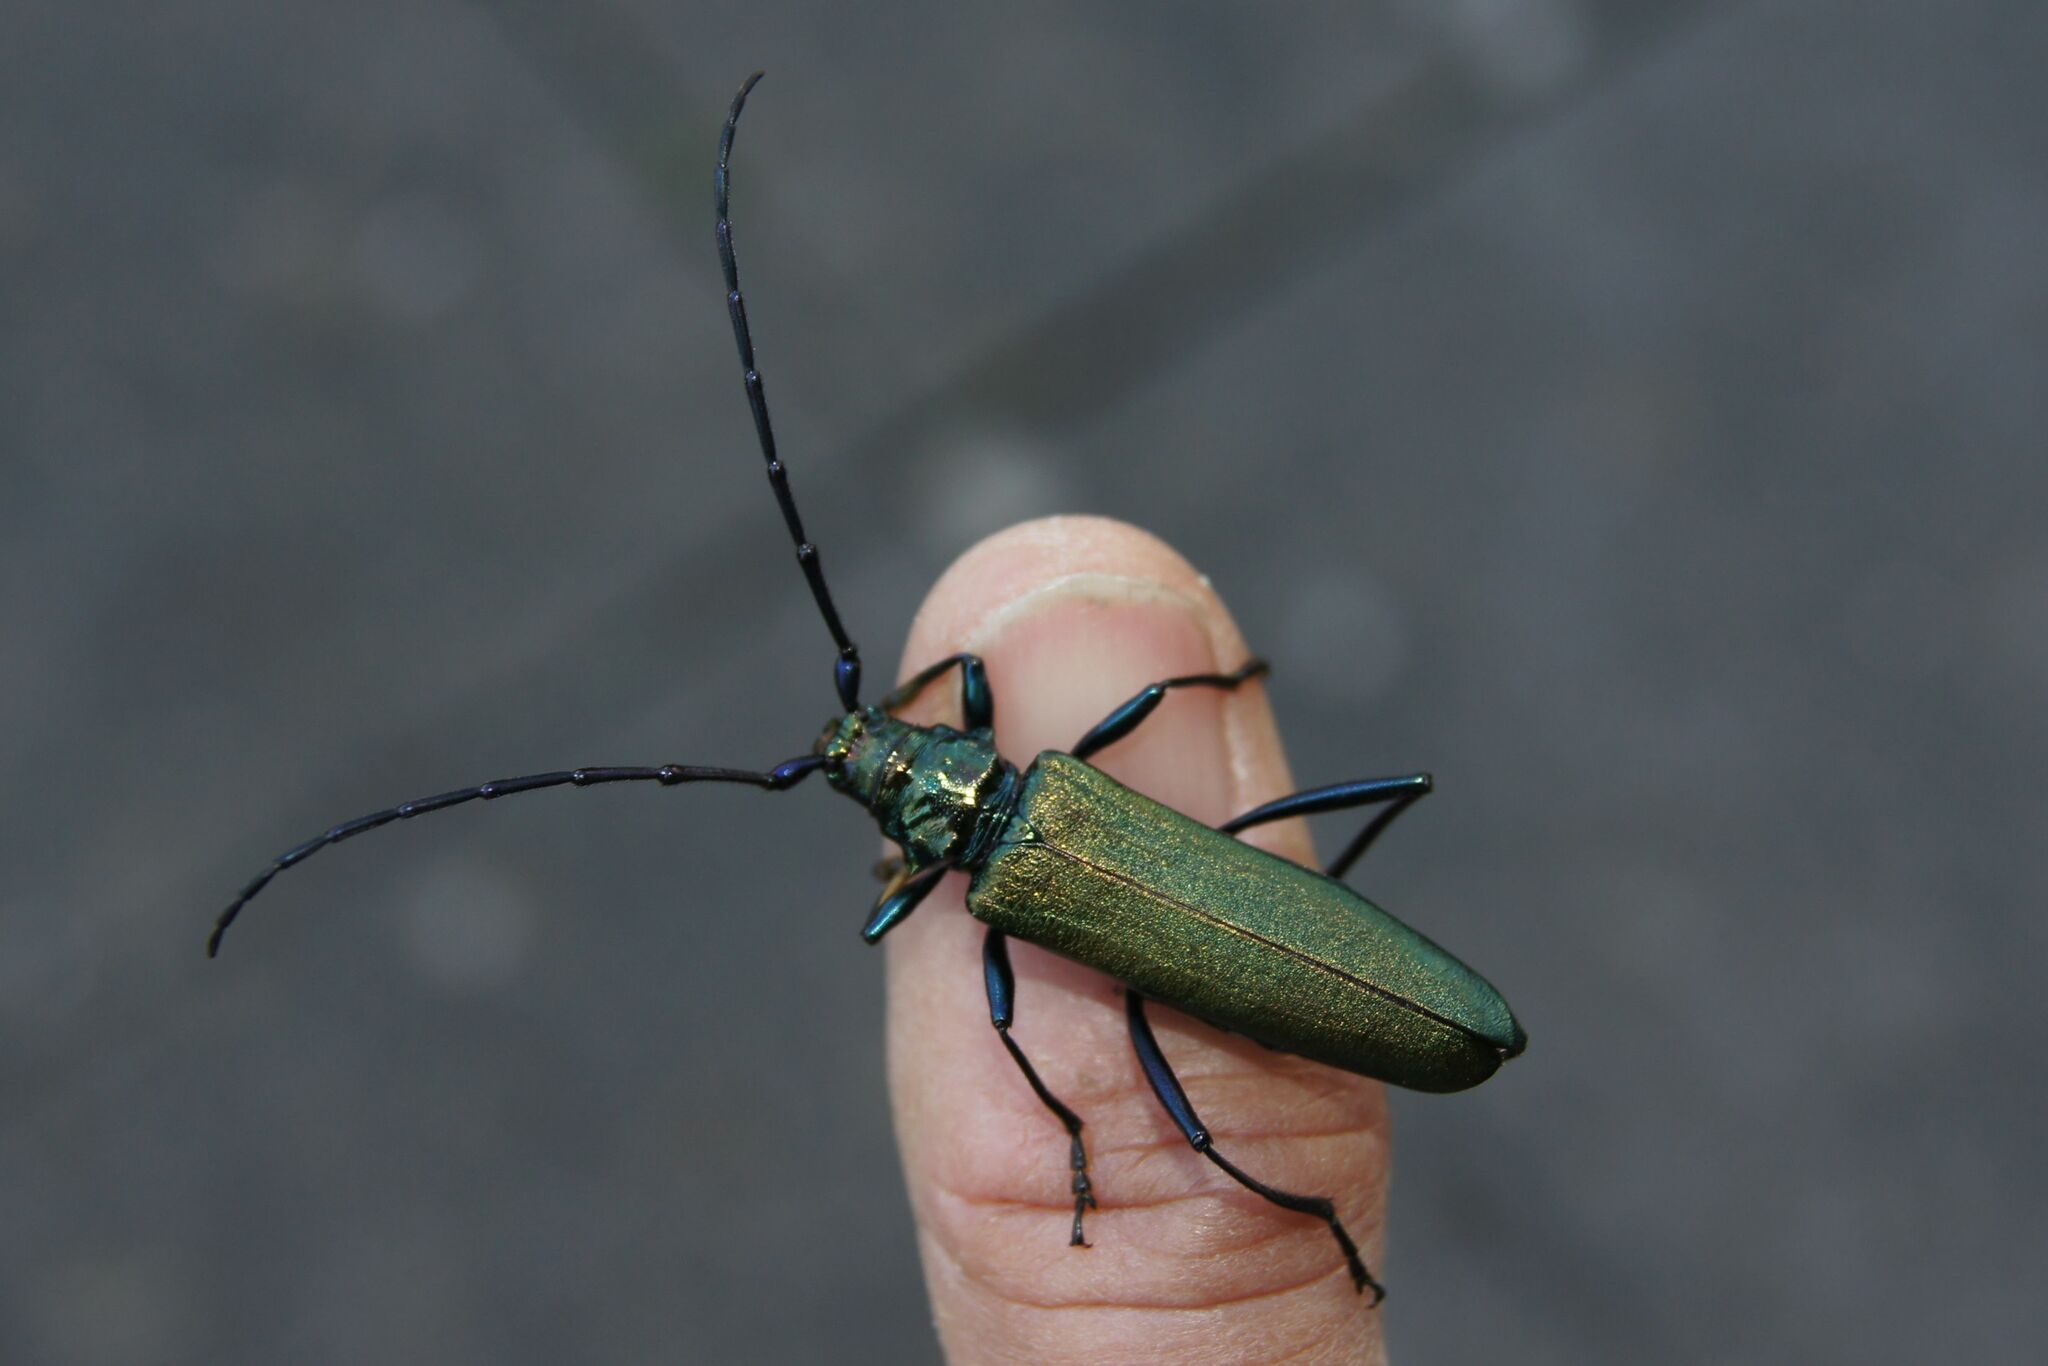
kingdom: Animalia
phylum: Arthropoda
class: Insecta
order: Coleoptera
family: Cerambycidae
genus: Aromia
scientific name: Aromia moschata
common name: Musk beetle
